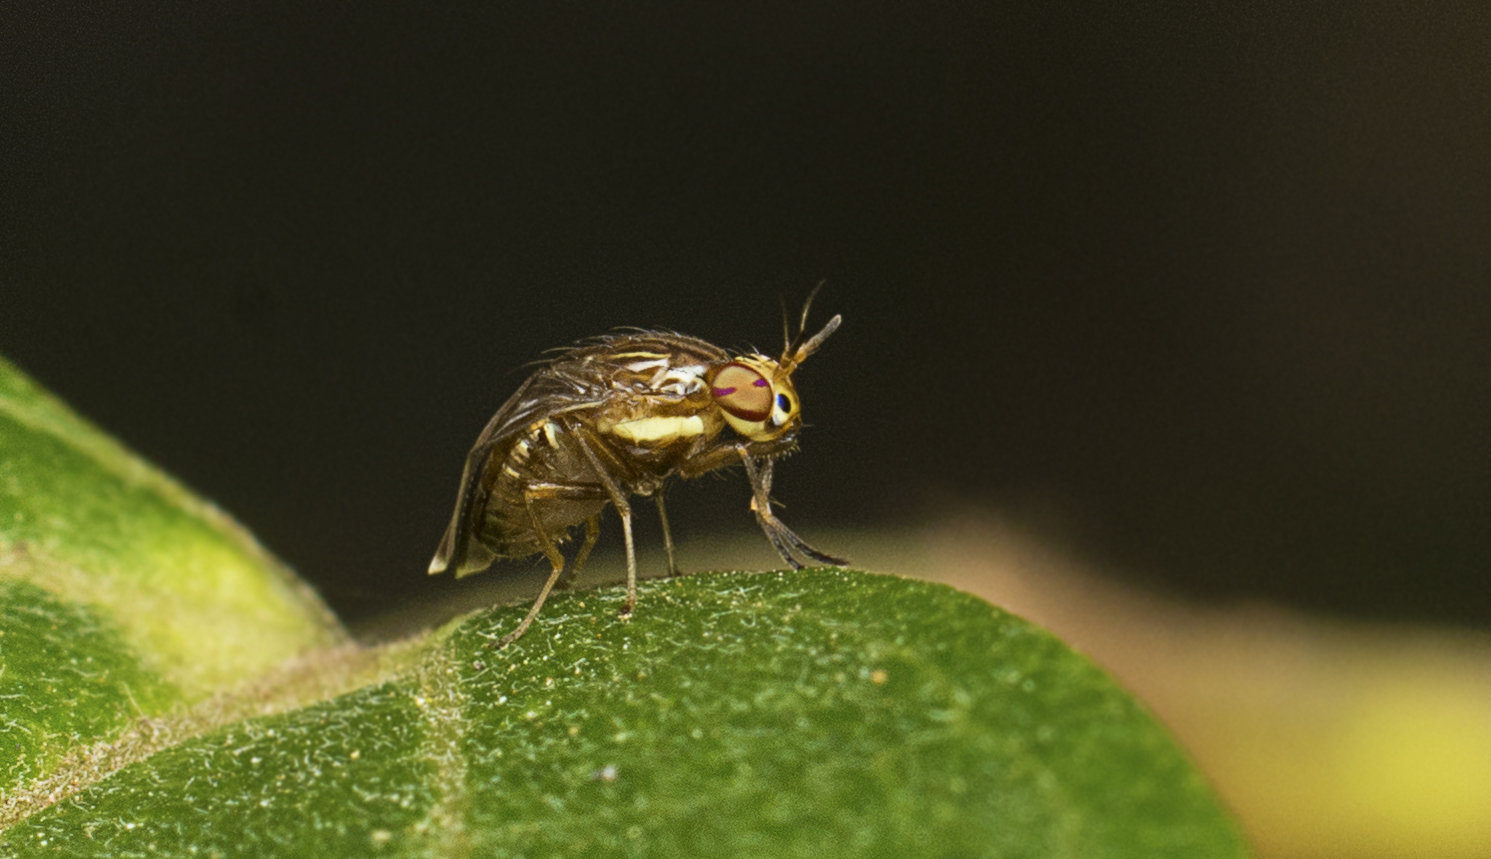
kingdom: Animalia
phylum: Arthropoda
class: Insecta
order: Diptera
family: Lauxaniidae
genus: Steganopsis
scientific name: Steganopsis melanogaster
